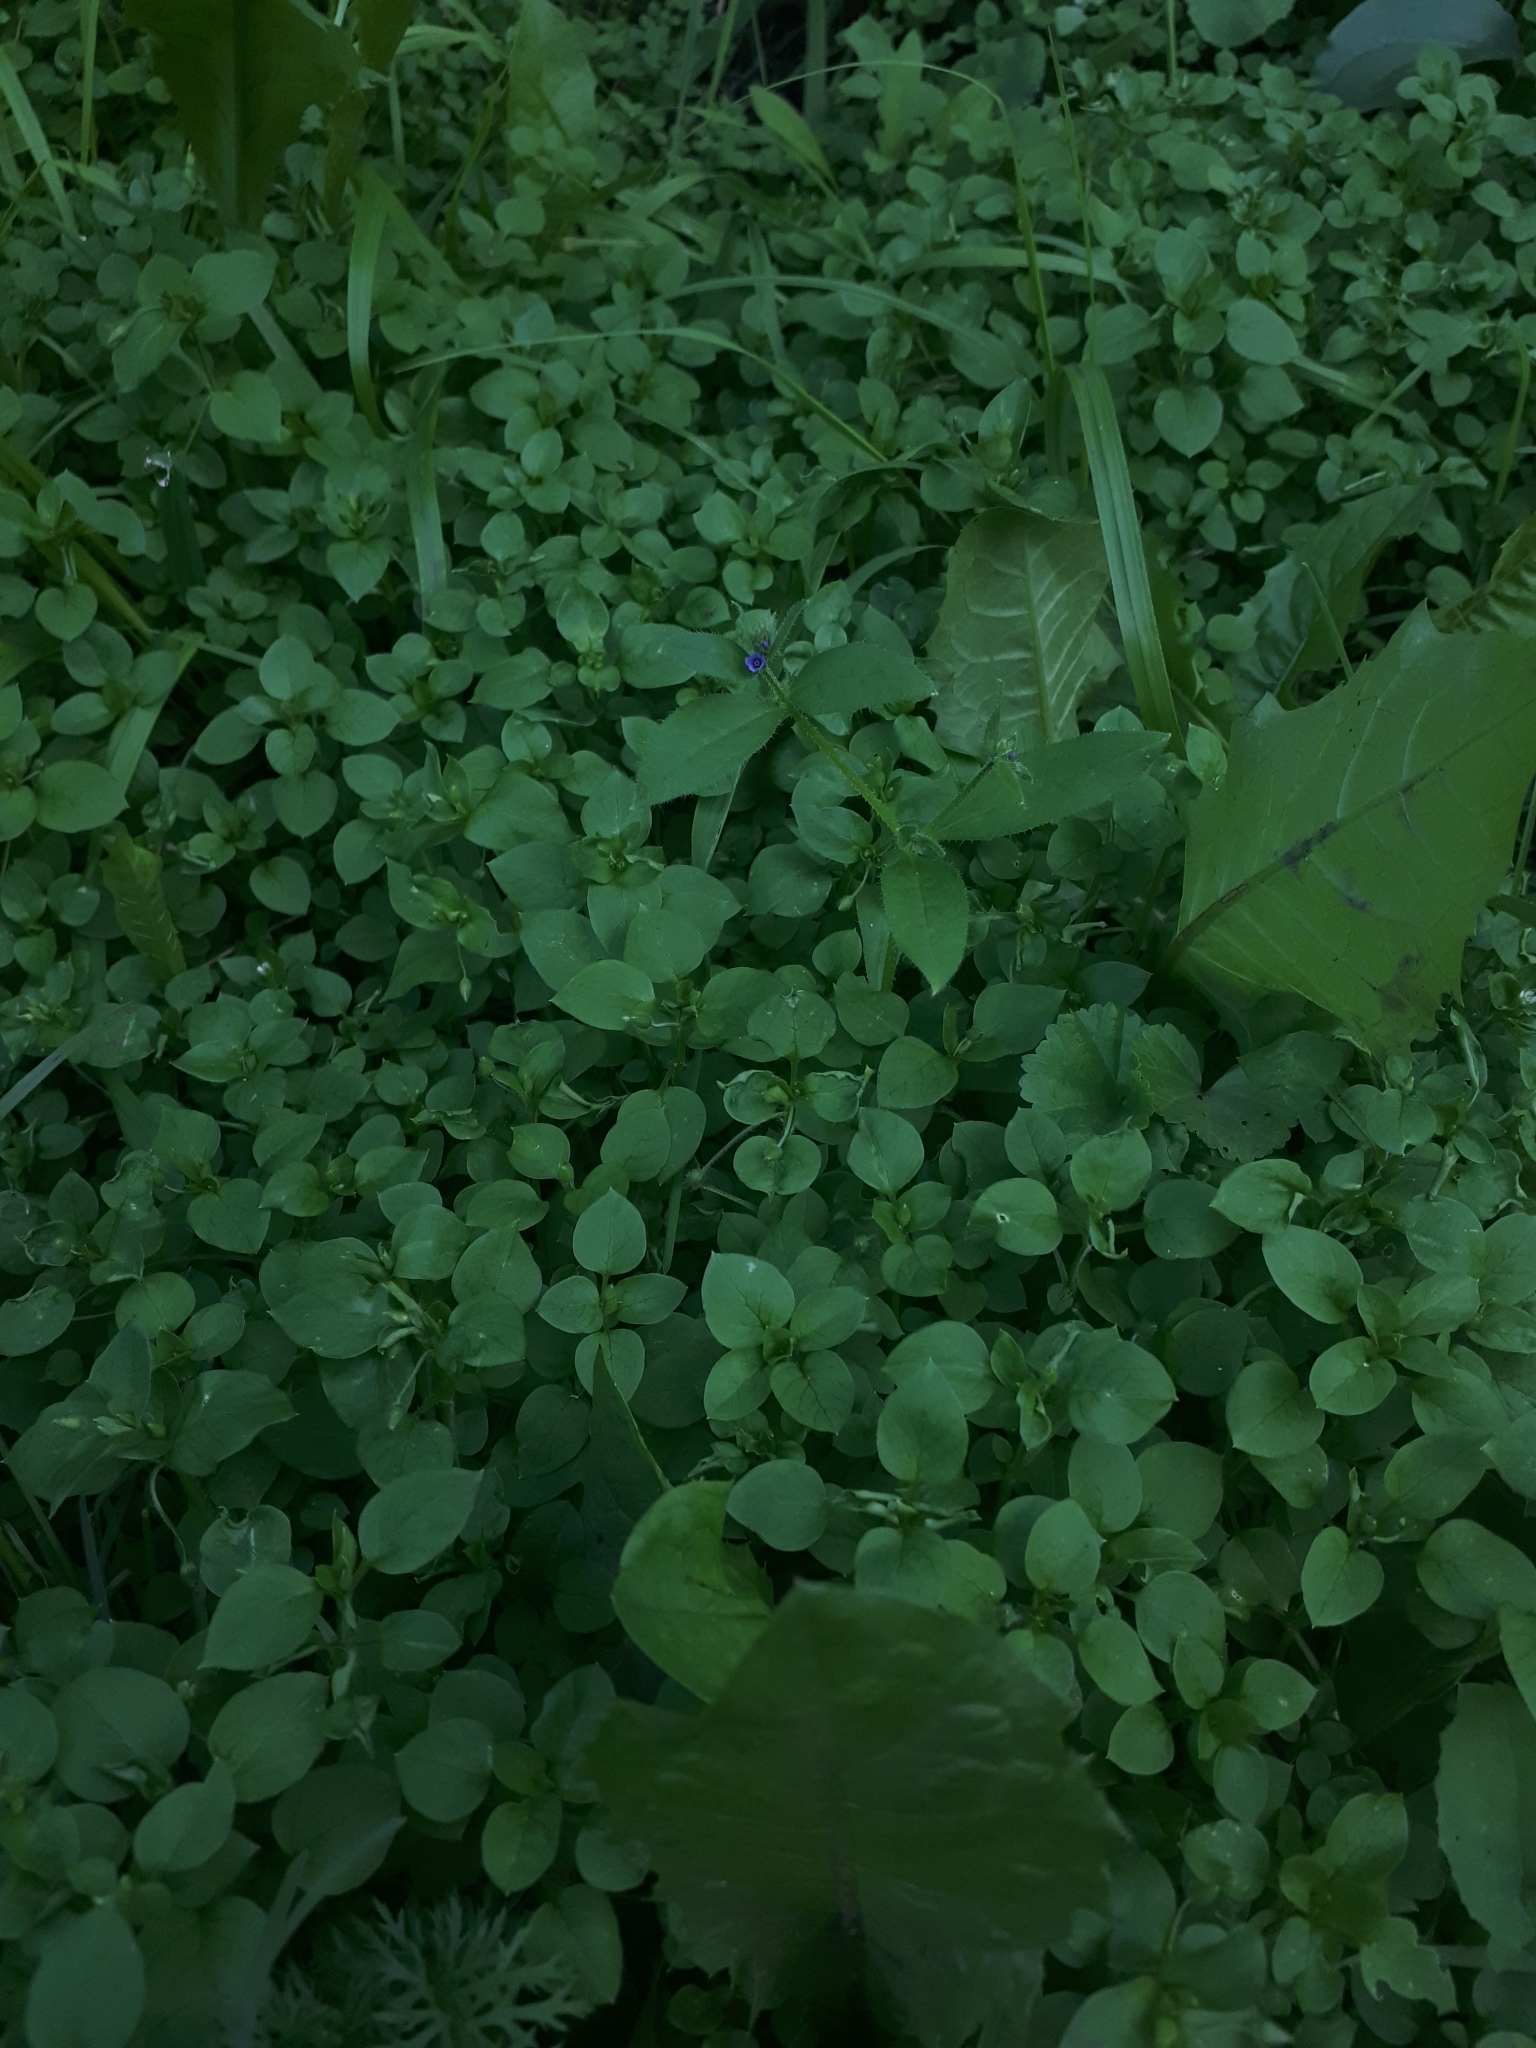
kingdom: Plantae
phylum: Tracheophyta
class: Magnoliopsida
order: Boraginales
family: Boraginaceae
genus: Asperugo
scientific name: Asperugo procumbens
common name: Madwort
